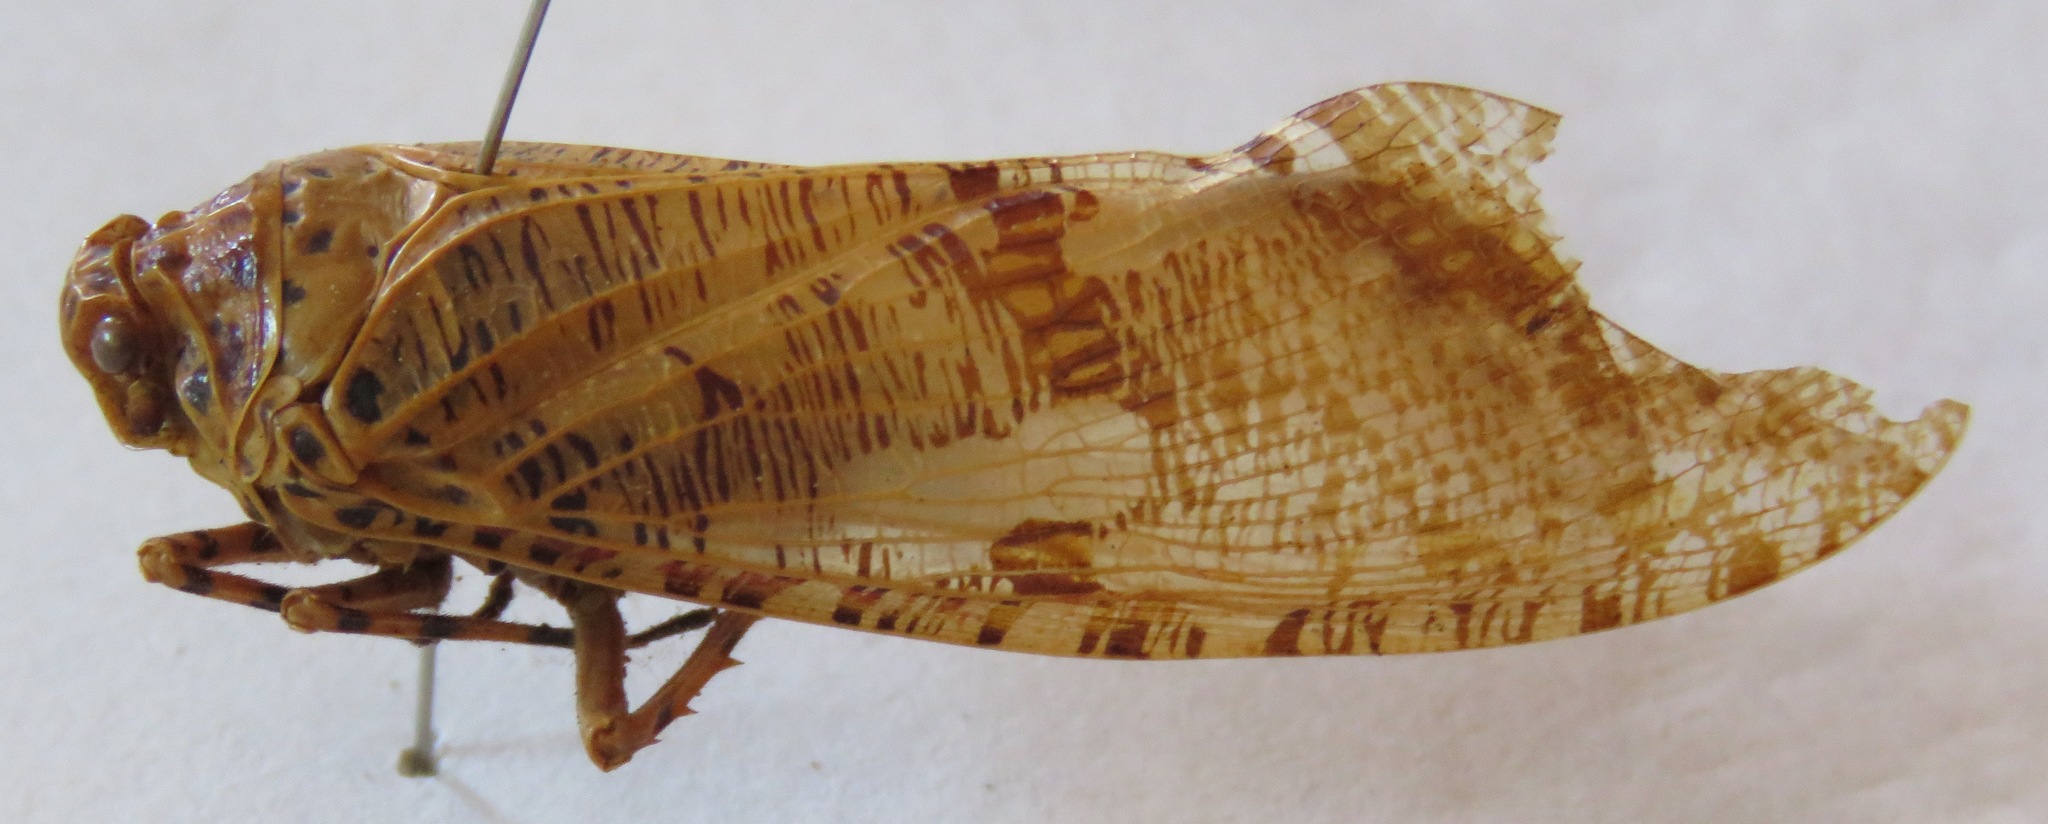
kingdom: Animalia
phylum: Arthropoda
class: Insecta
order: Hemiptera
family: Fulgoridae
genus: Phenax
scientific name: Phenax variegata
